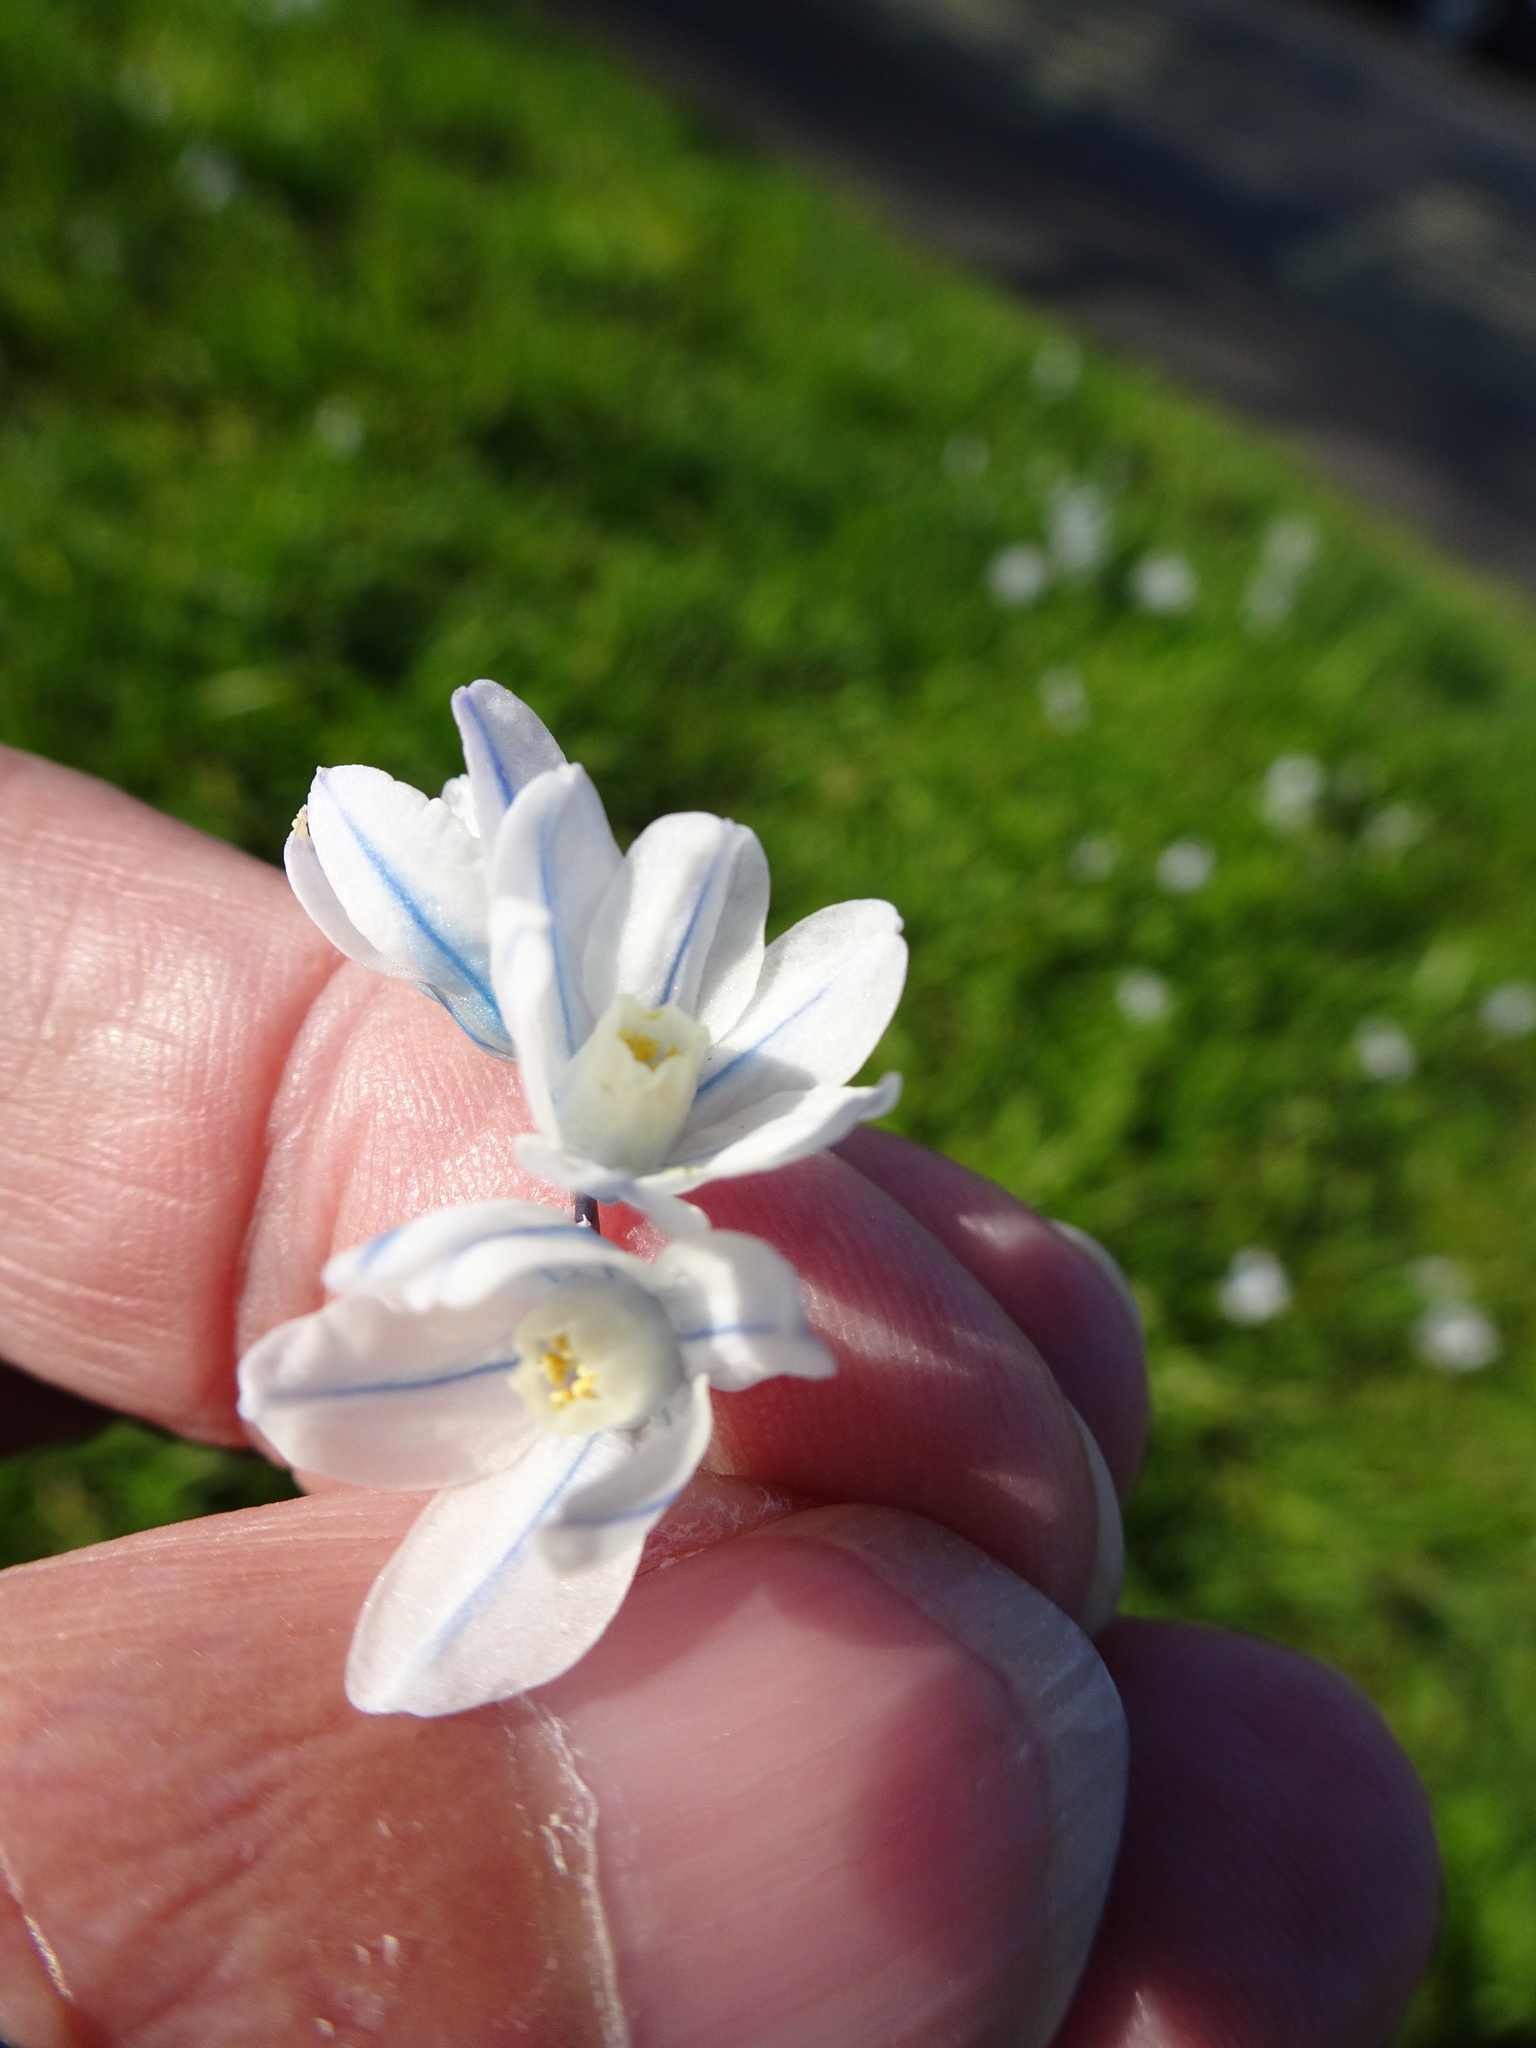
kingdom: Plantae
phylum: Tracheophyta
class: Liliopsida
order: Asparagales
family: Asparagaceae
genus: Puschkinia
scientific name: Puschkinia scilloides
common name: Striped squill
